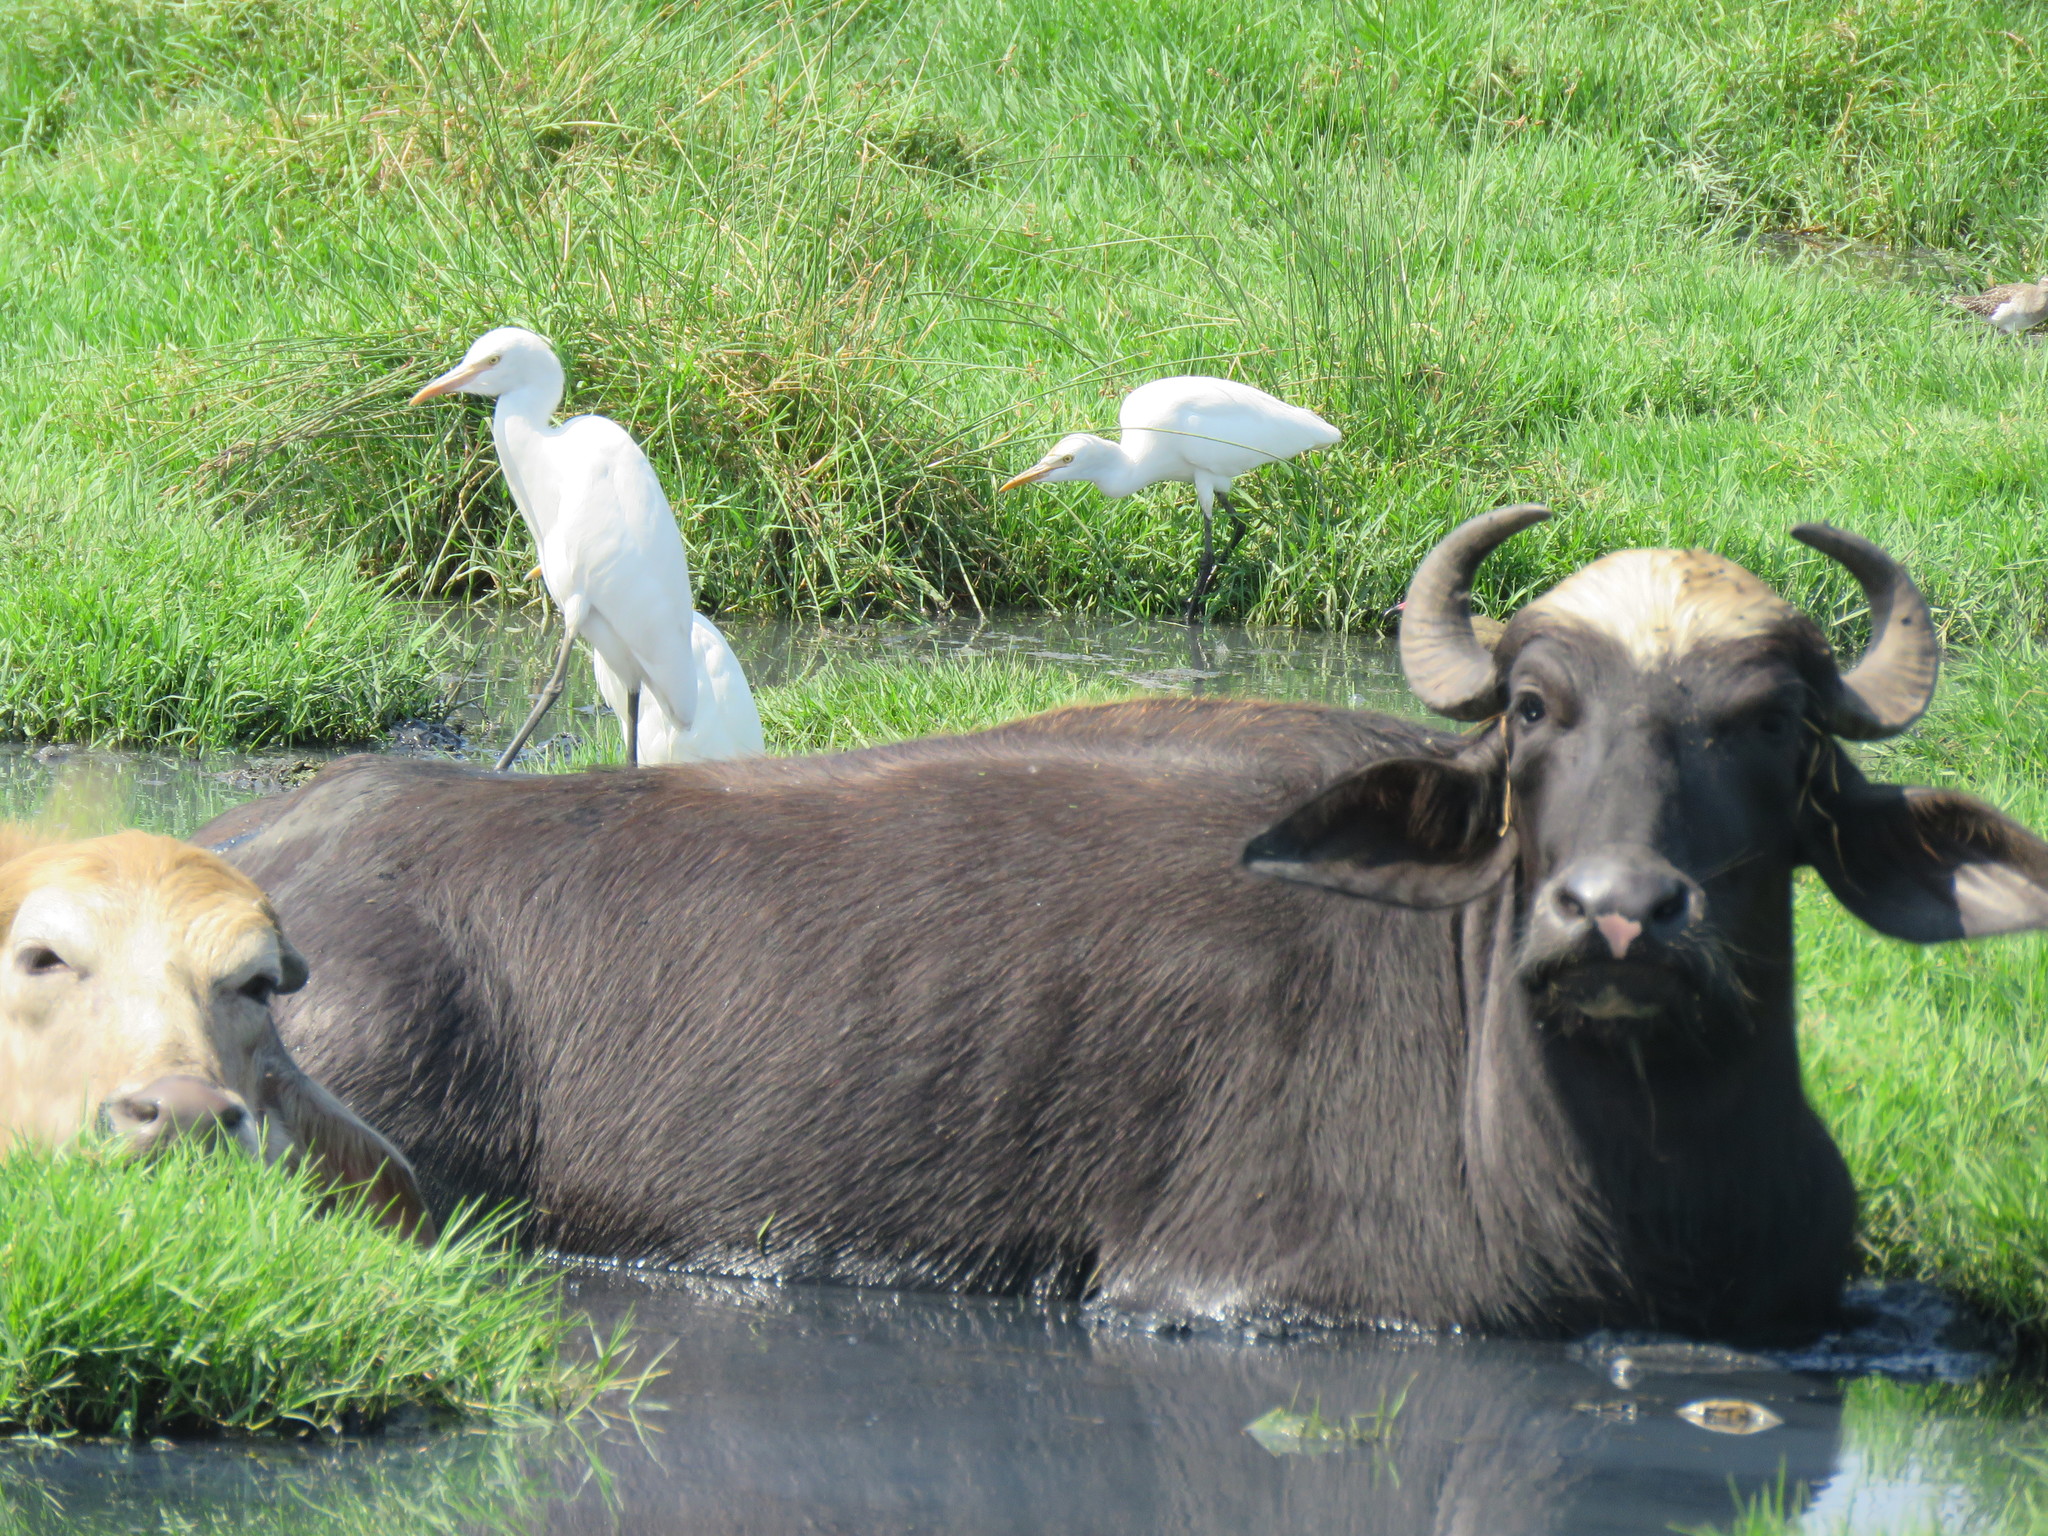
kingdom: Animalia
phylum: Chordata
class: Mammalia
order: Artiodactyla
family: Bovidae
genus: Bubalus
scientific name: Bubalus bubalis
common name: Water buffalo
